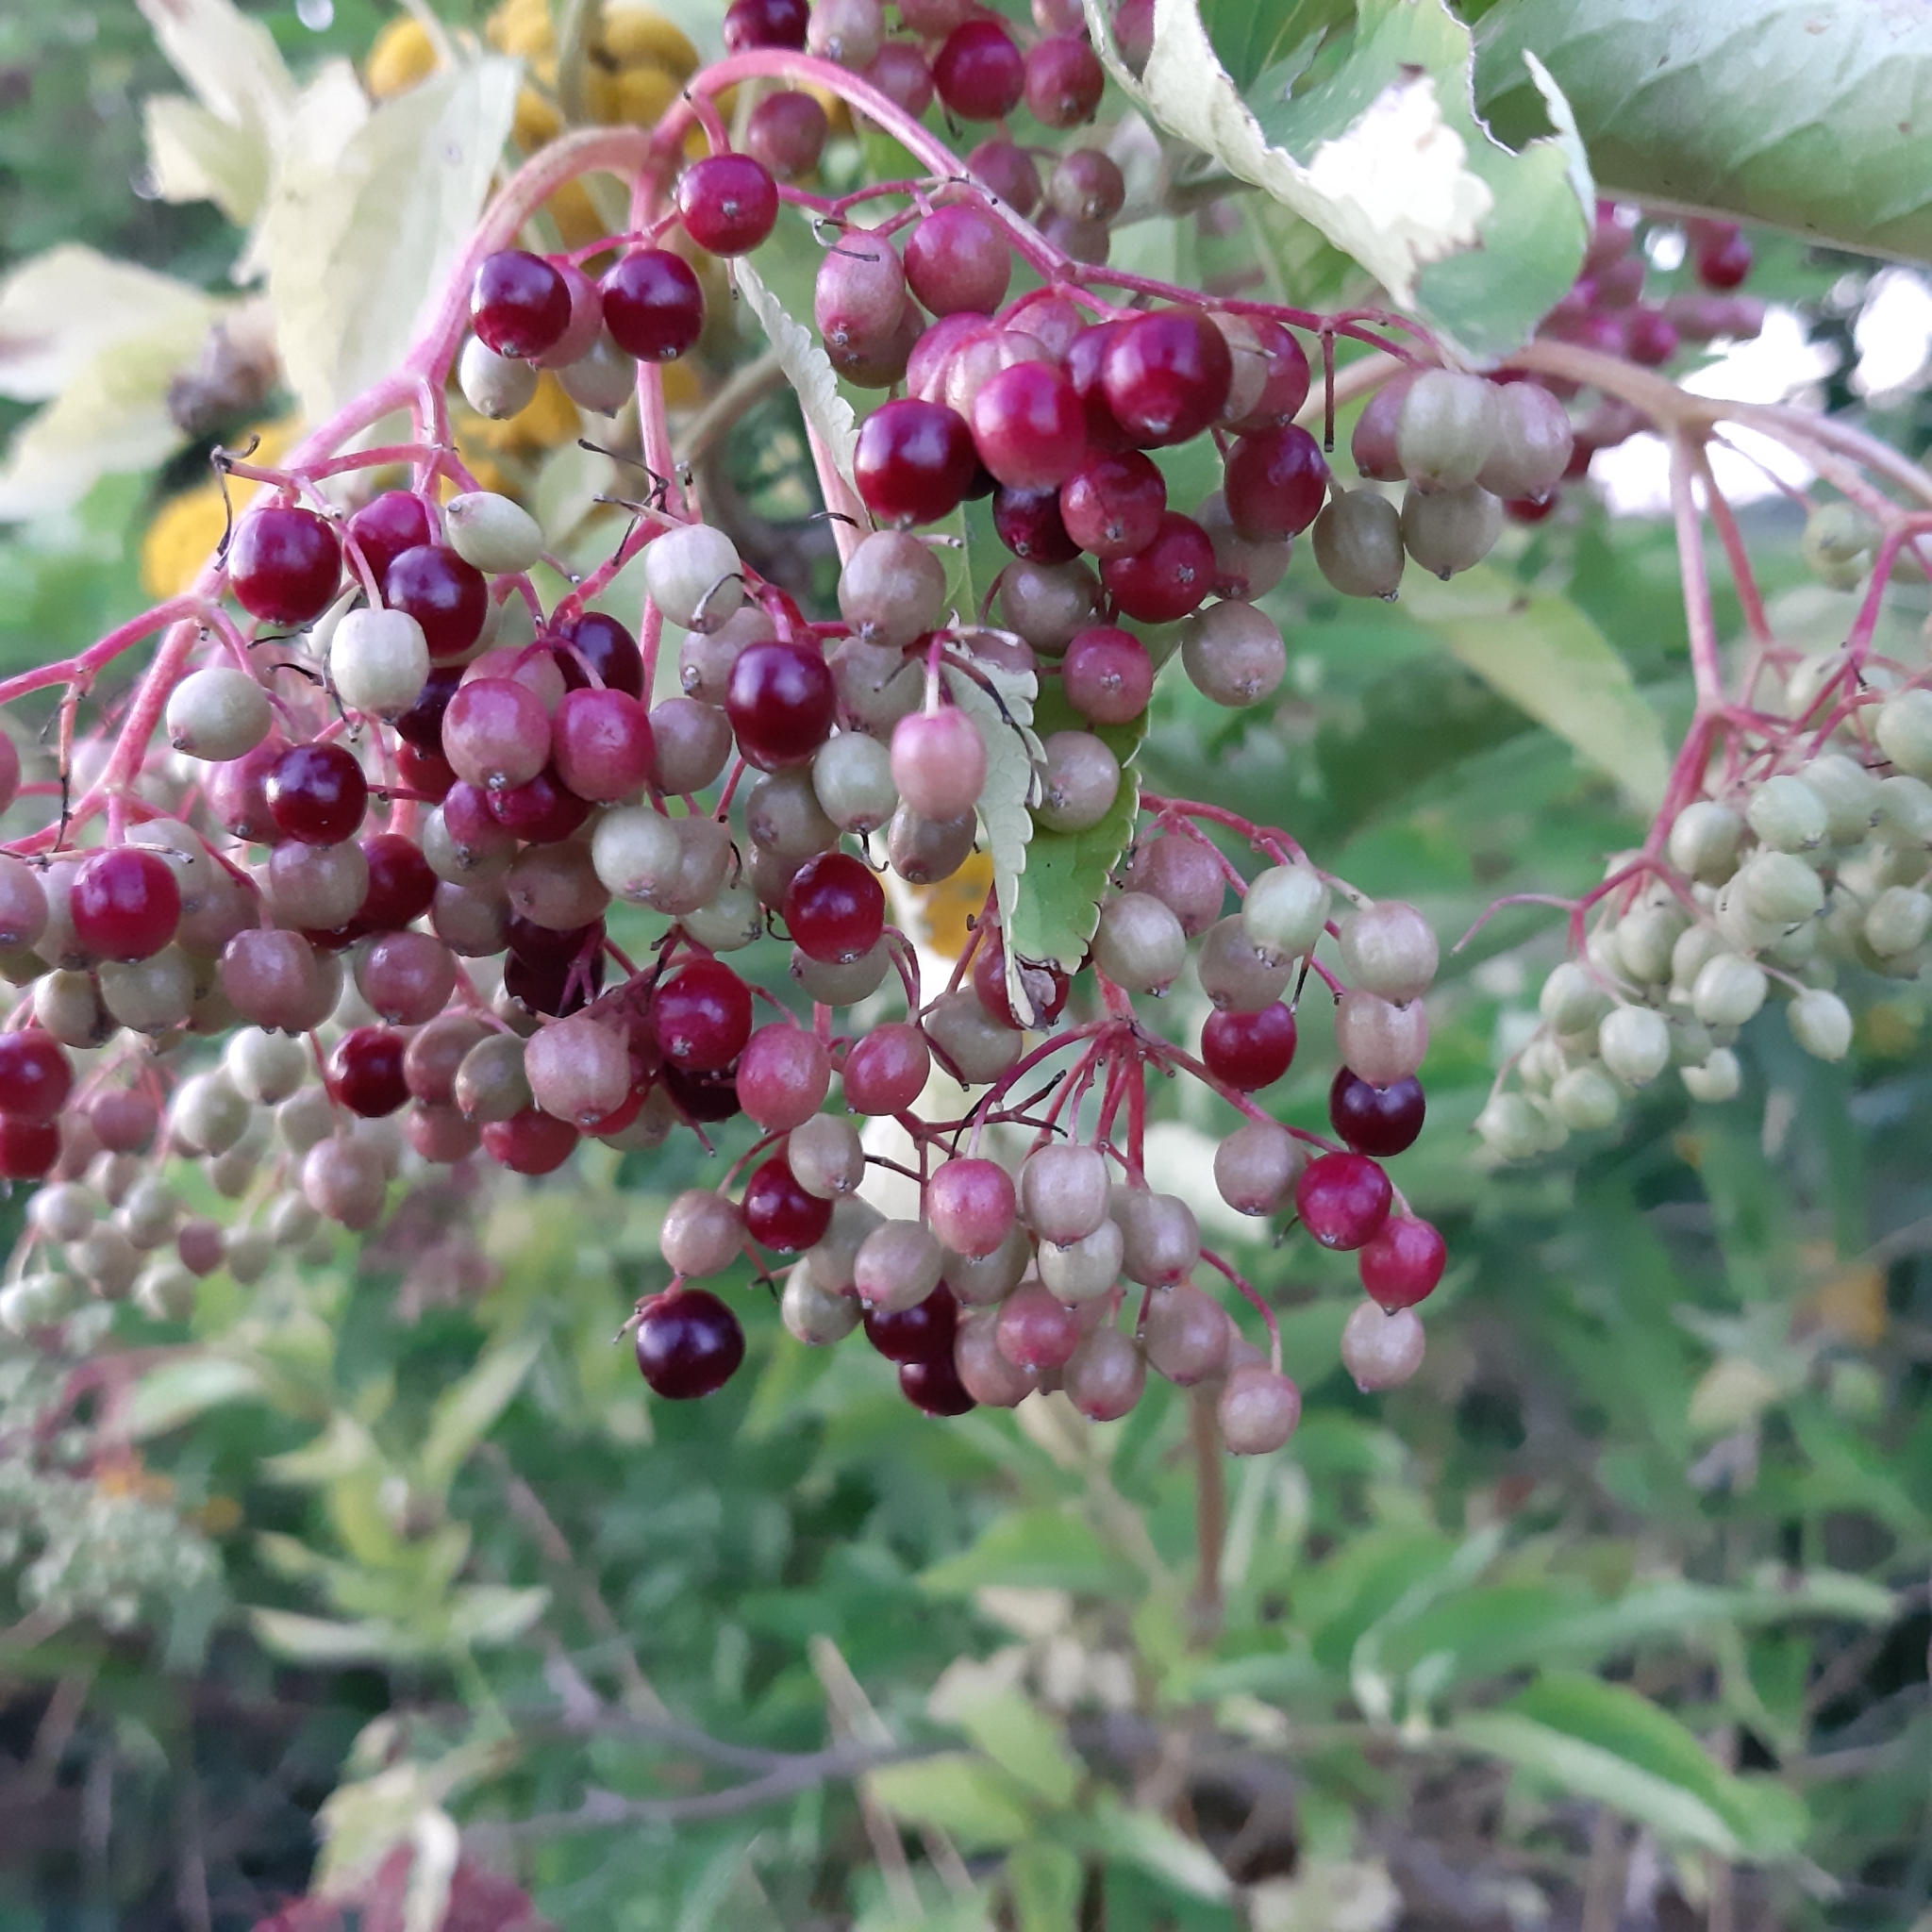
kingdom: Plantae
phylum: Tracheophyta
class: Magnoliopsida
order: Dipsacales
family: Viburnaceae
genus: Sambucus
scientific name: Sambucus nigra
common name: Elder
